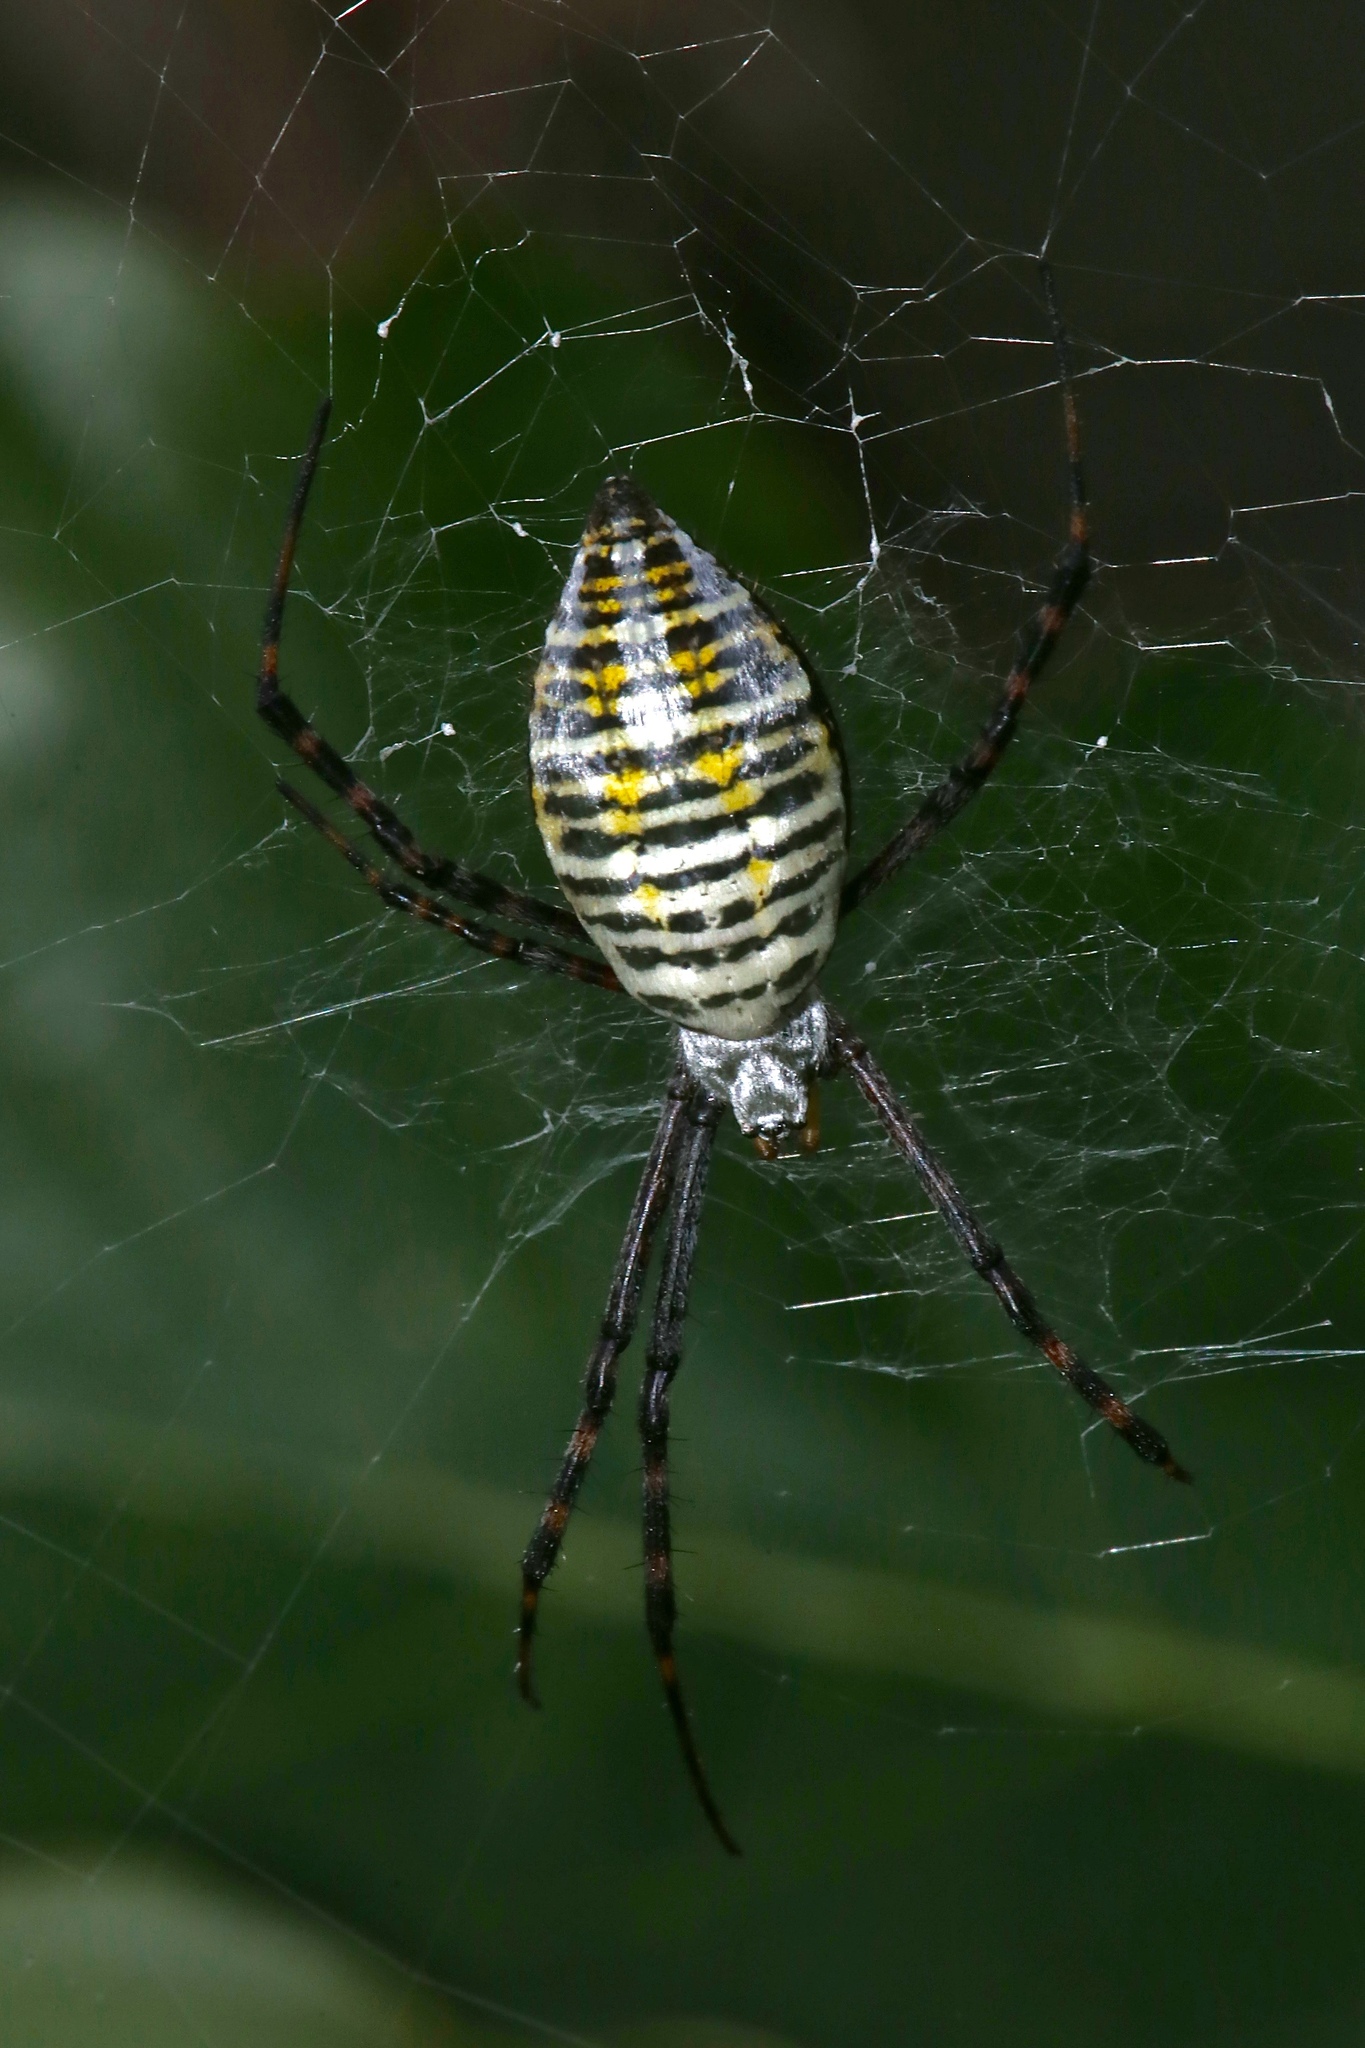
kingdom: Animalia
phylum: Arthropoda
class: Arachnida
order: Araneae
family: Araneidae
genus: Argiope
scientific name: Argiope trifasciata
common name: Banded garden spider
